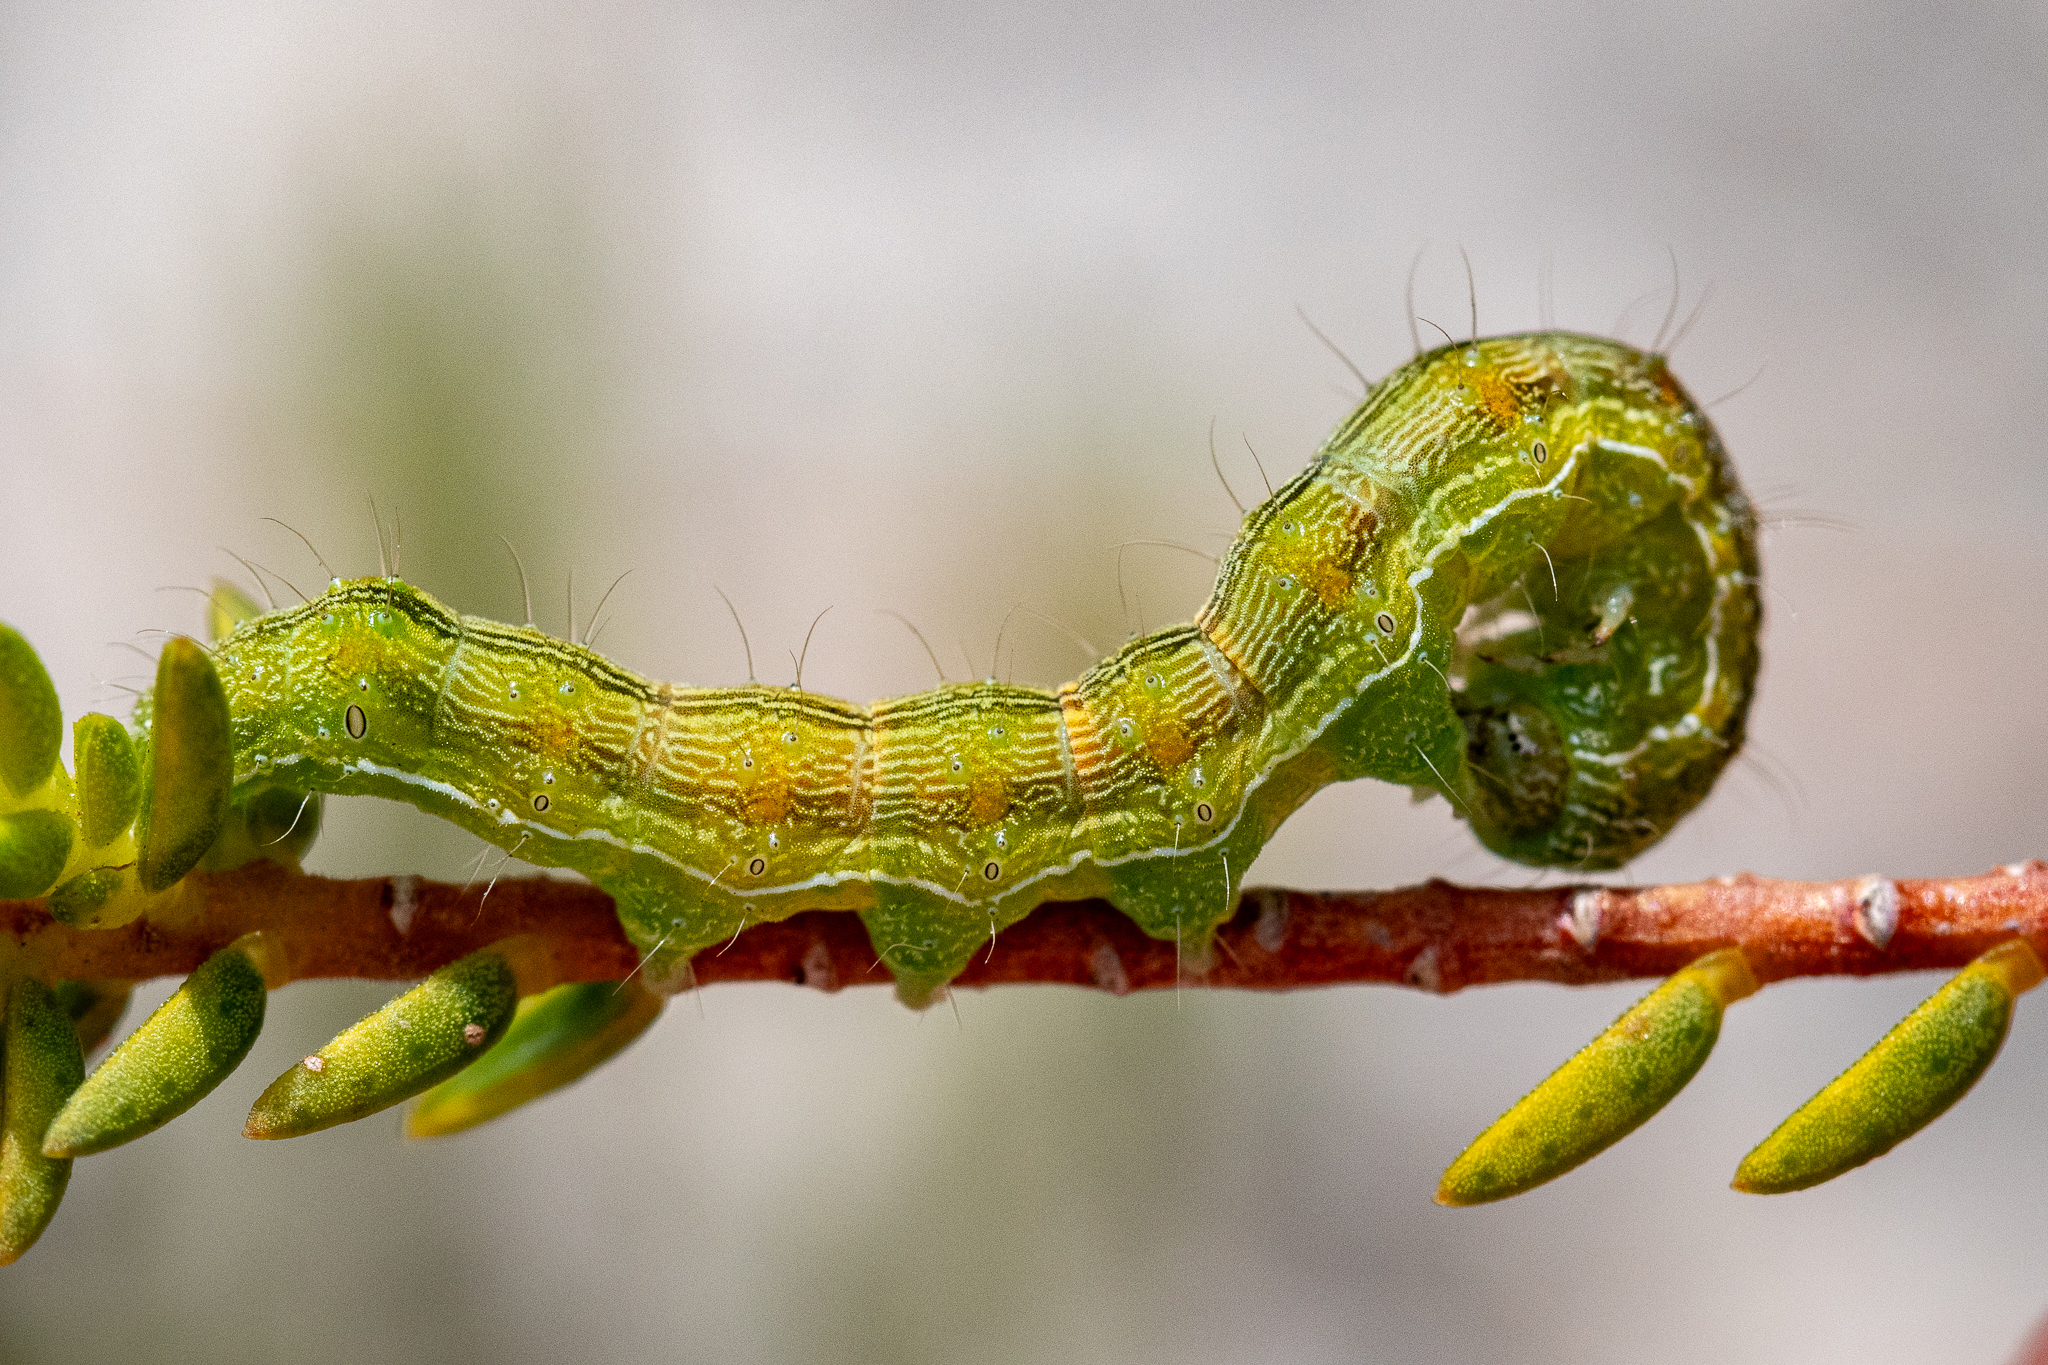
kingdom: Animalia
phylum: Arthropoda
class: Insecta
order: Lepidoptera
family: Noctuidae
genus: Helicoverpa
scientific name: Helicoverpa armigera
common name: Cotton bollworm
